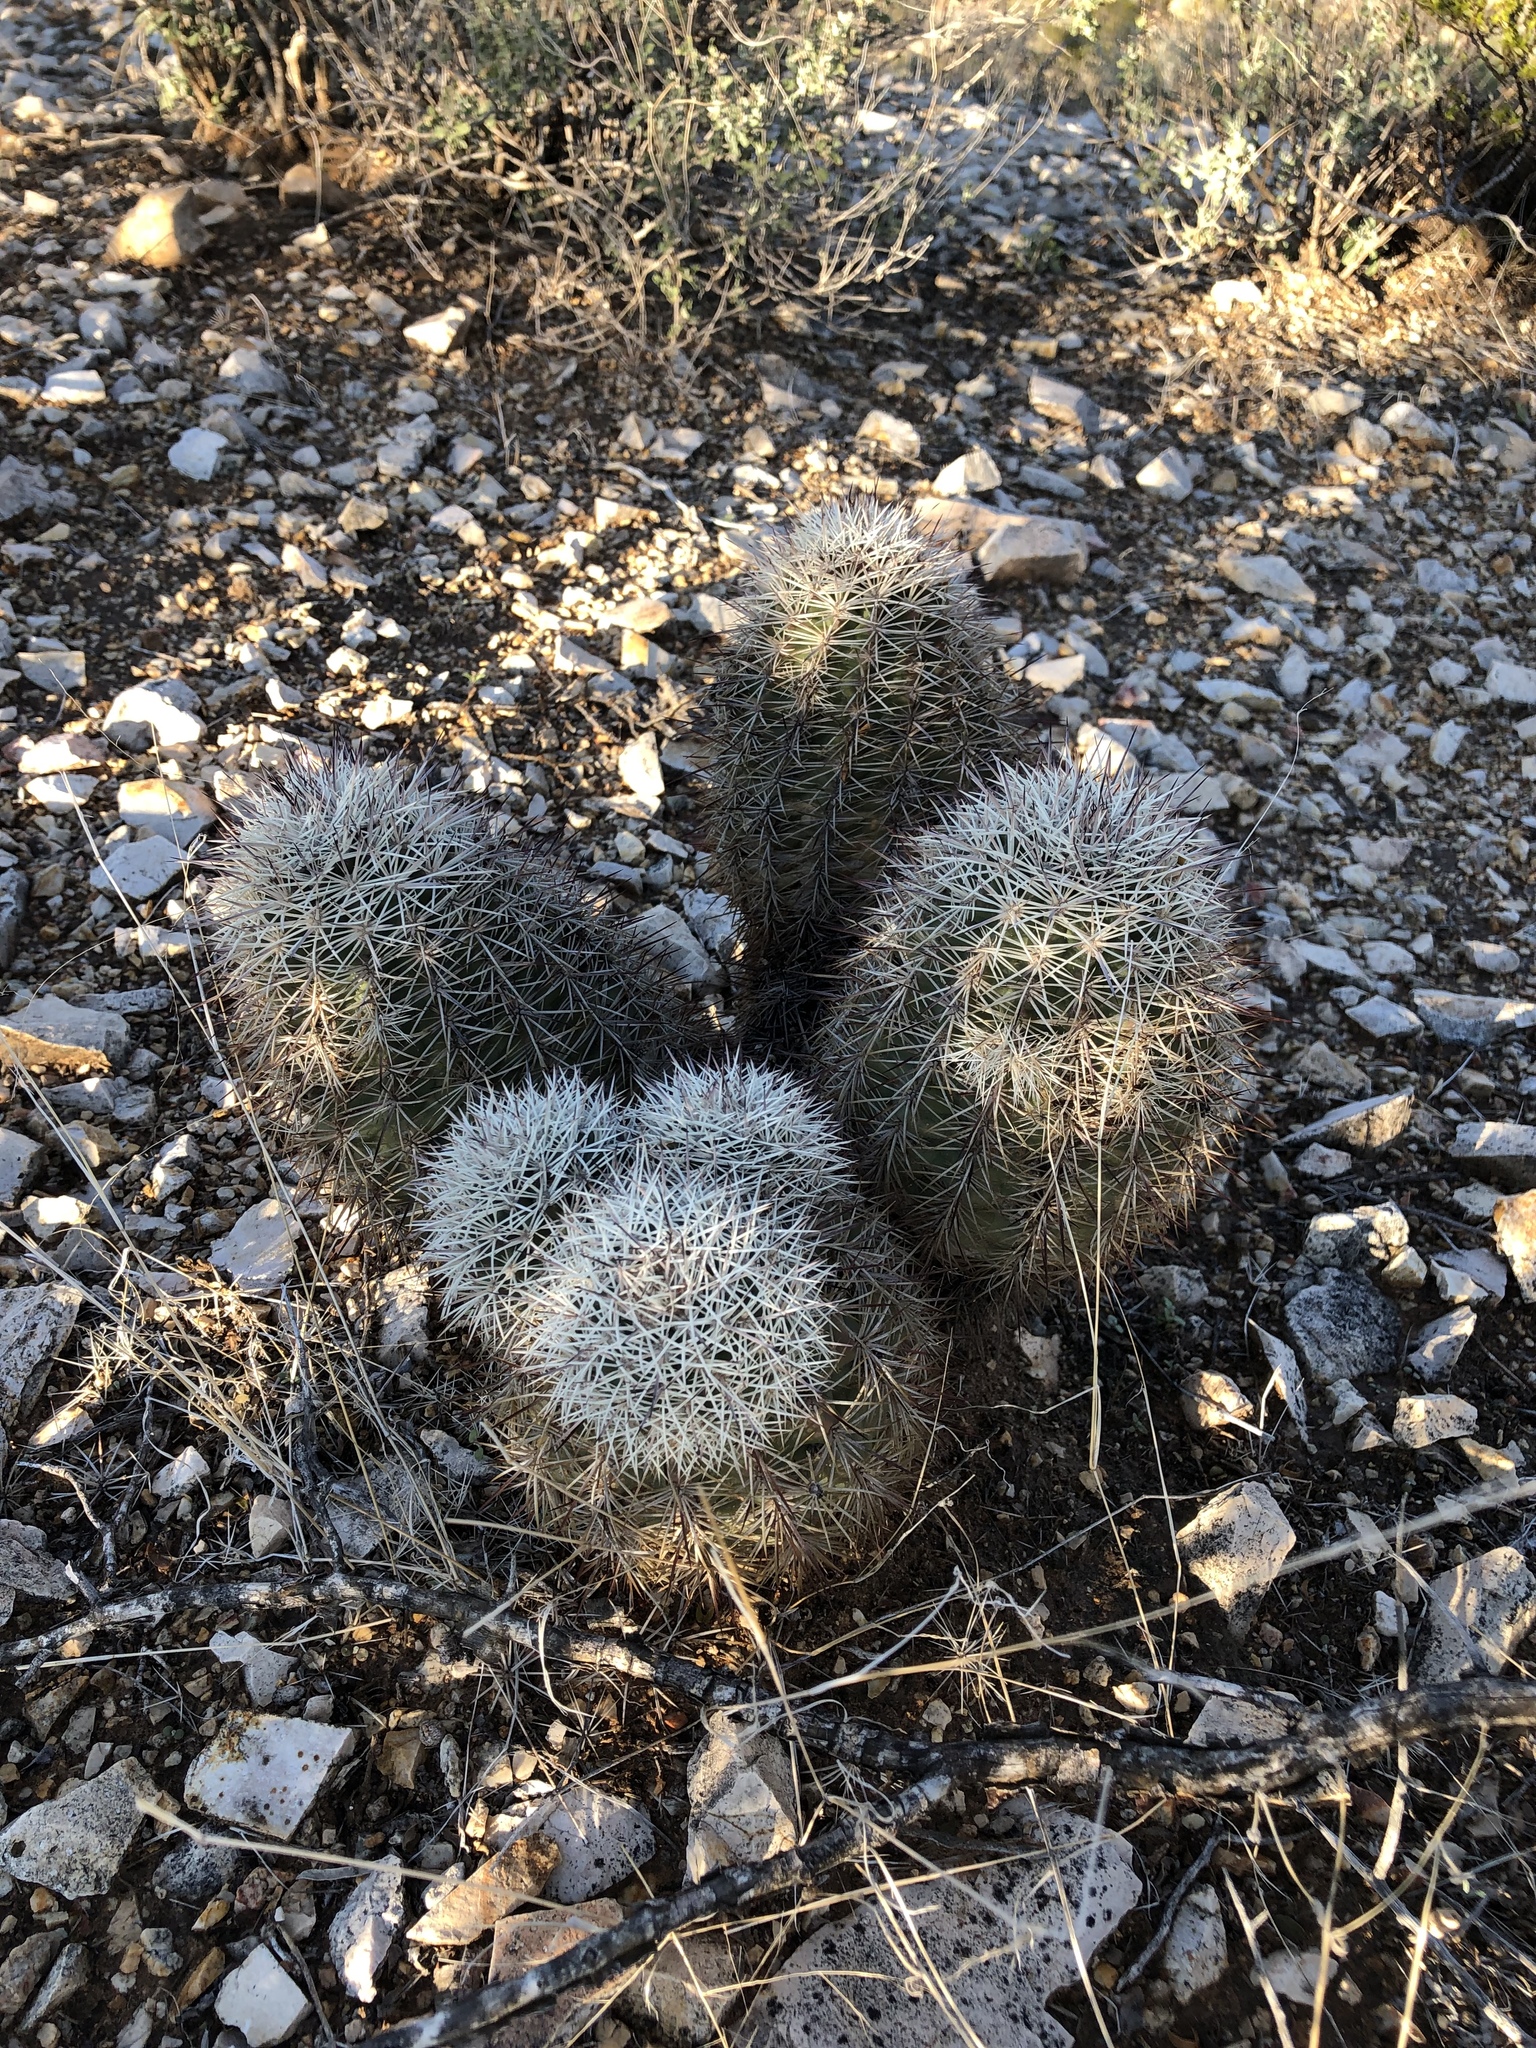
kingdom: Plantae
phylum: Tracheophyta
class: Magnoliopsida
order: Caryophyllales
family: Cactaceae
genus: Echinocereus
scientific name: Echinocereus dasyacanthus
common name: Spiny hedgehog cactus
